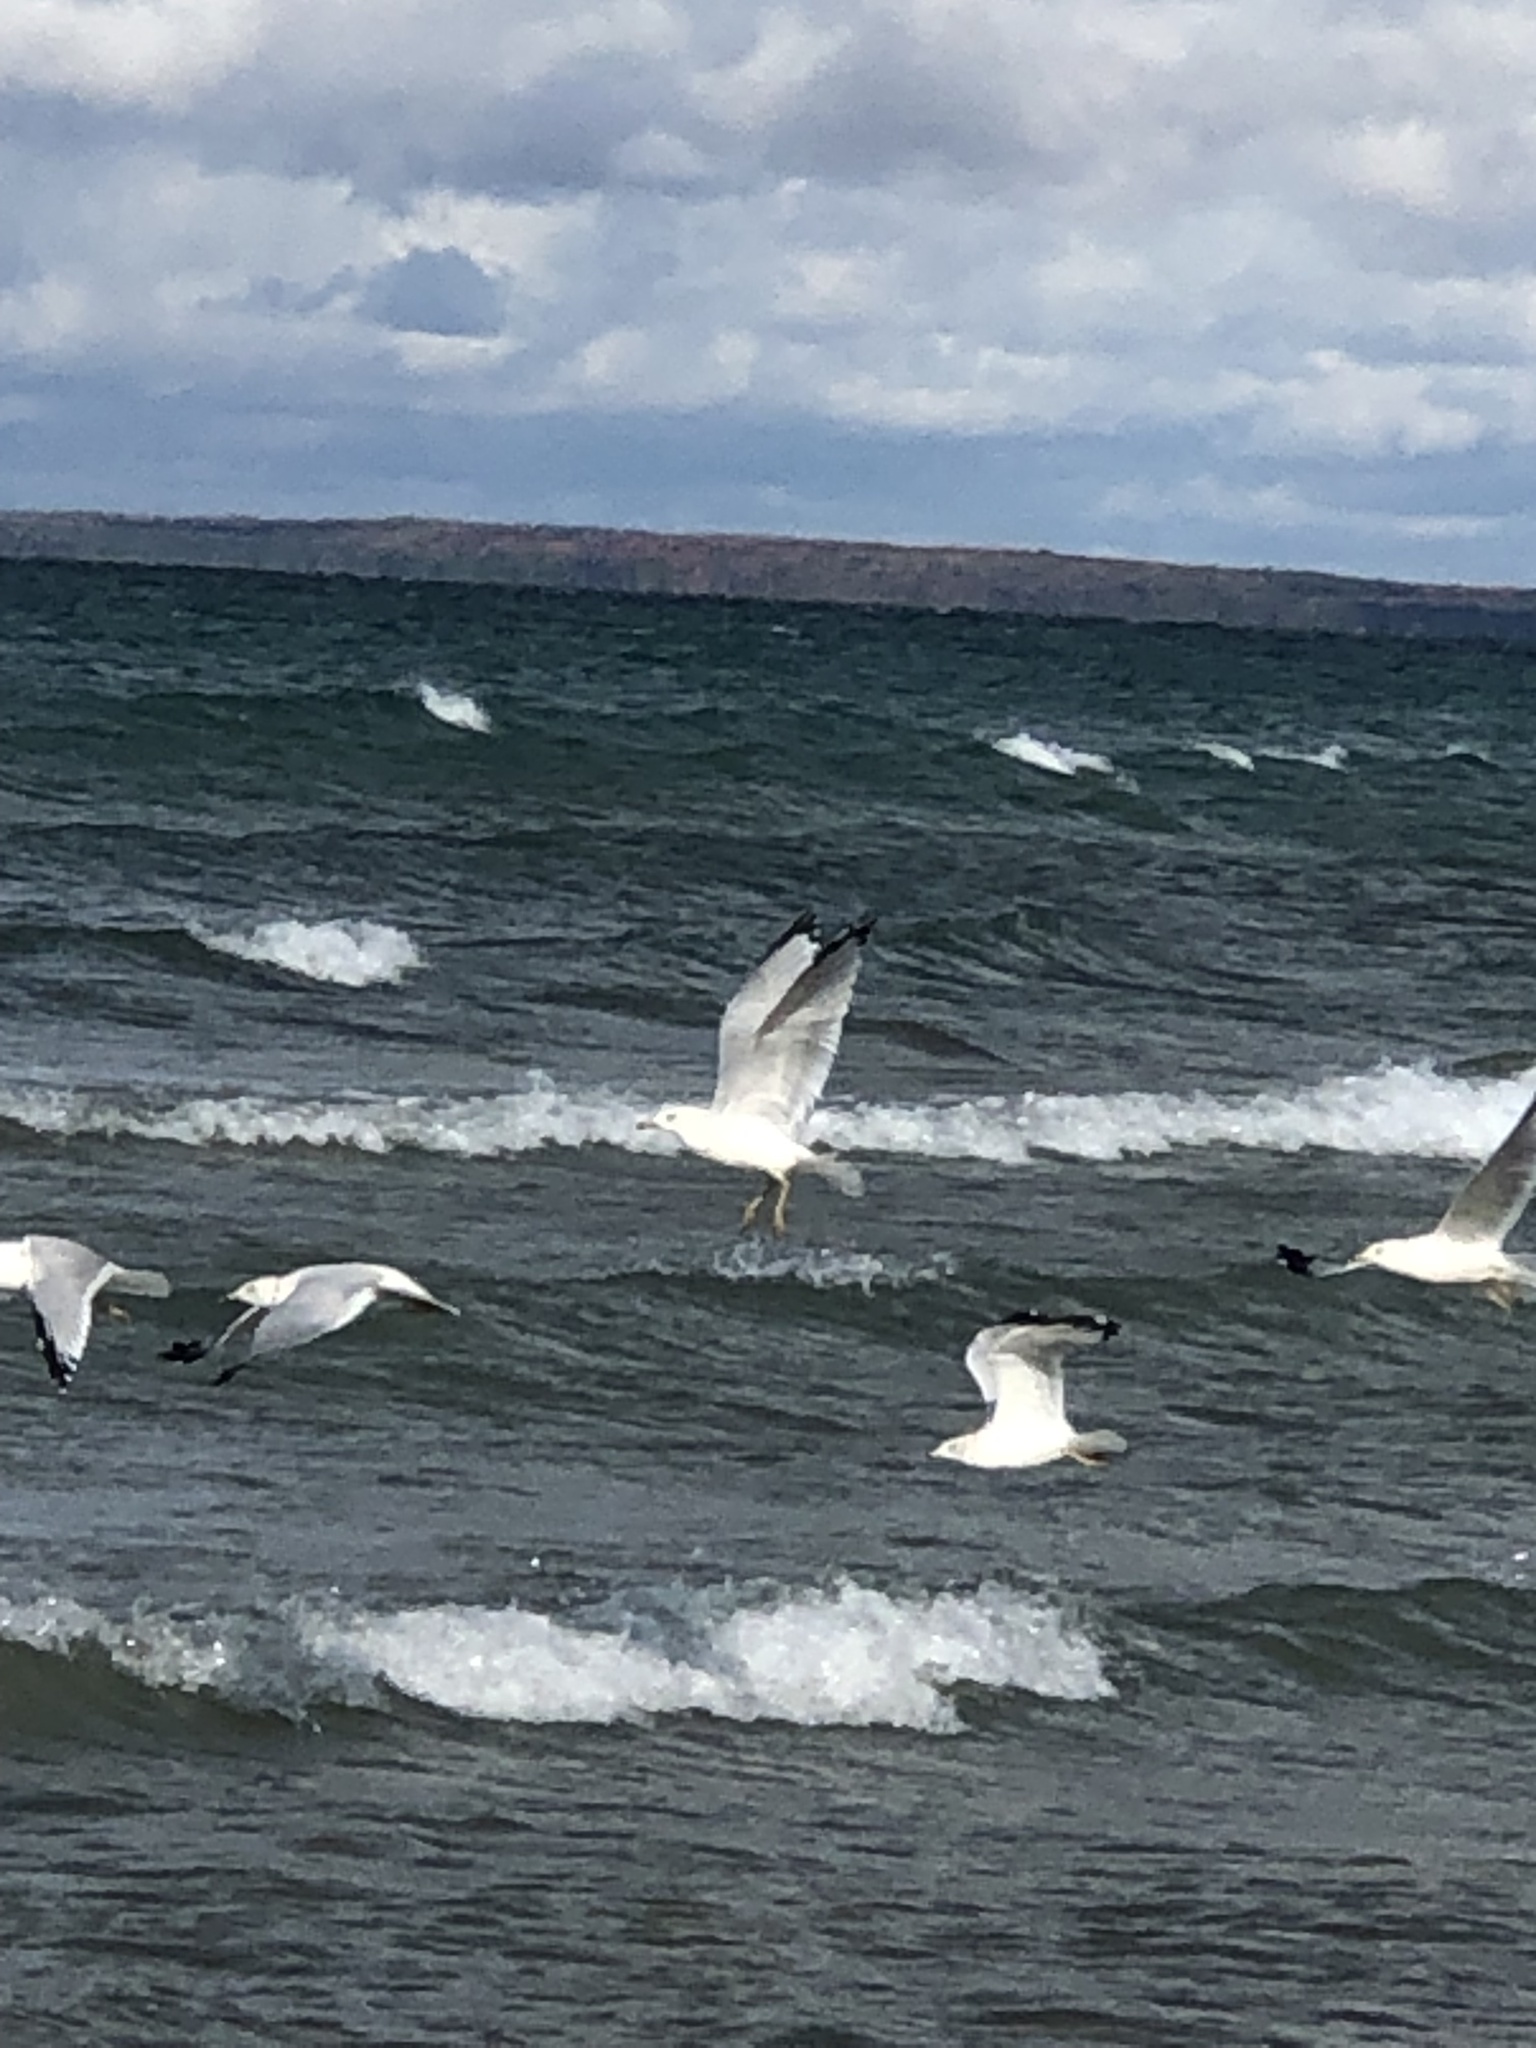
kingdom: Animalia
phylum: Chordata
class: Aves
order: Charadriiformes
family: Laridae
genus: Larus
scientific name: Larus delawarensis
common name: Ring-billed gull
